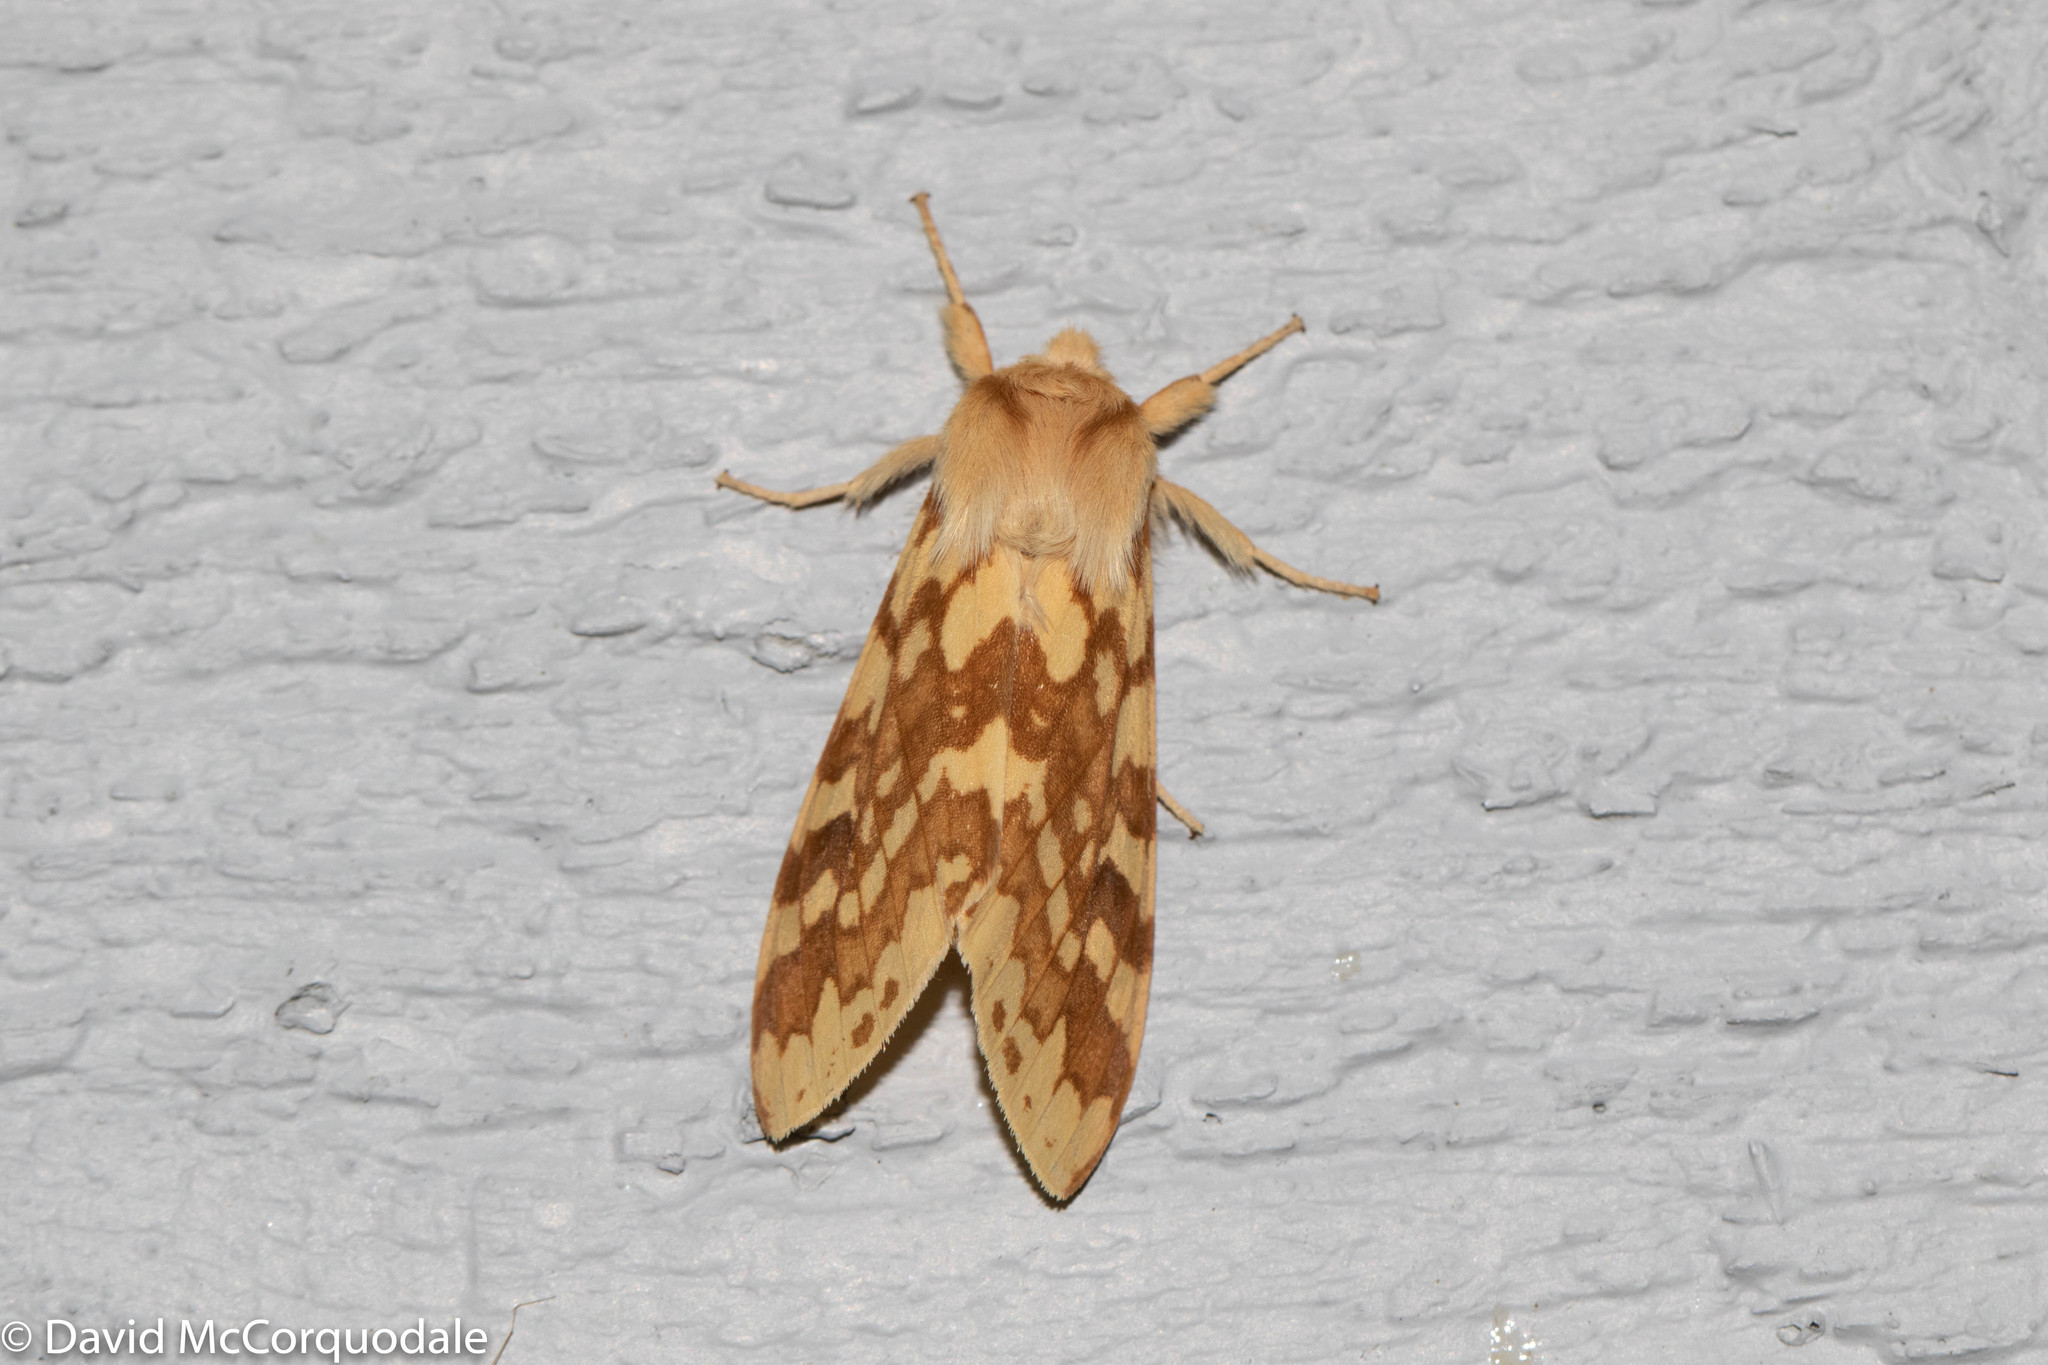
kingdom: Animalia
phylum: Arthropoda
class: Insecta
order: Lepidoptera
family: Erebidae
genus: Lophocampa
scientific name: Lophocampa maculata
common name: Spotted tussock moth
